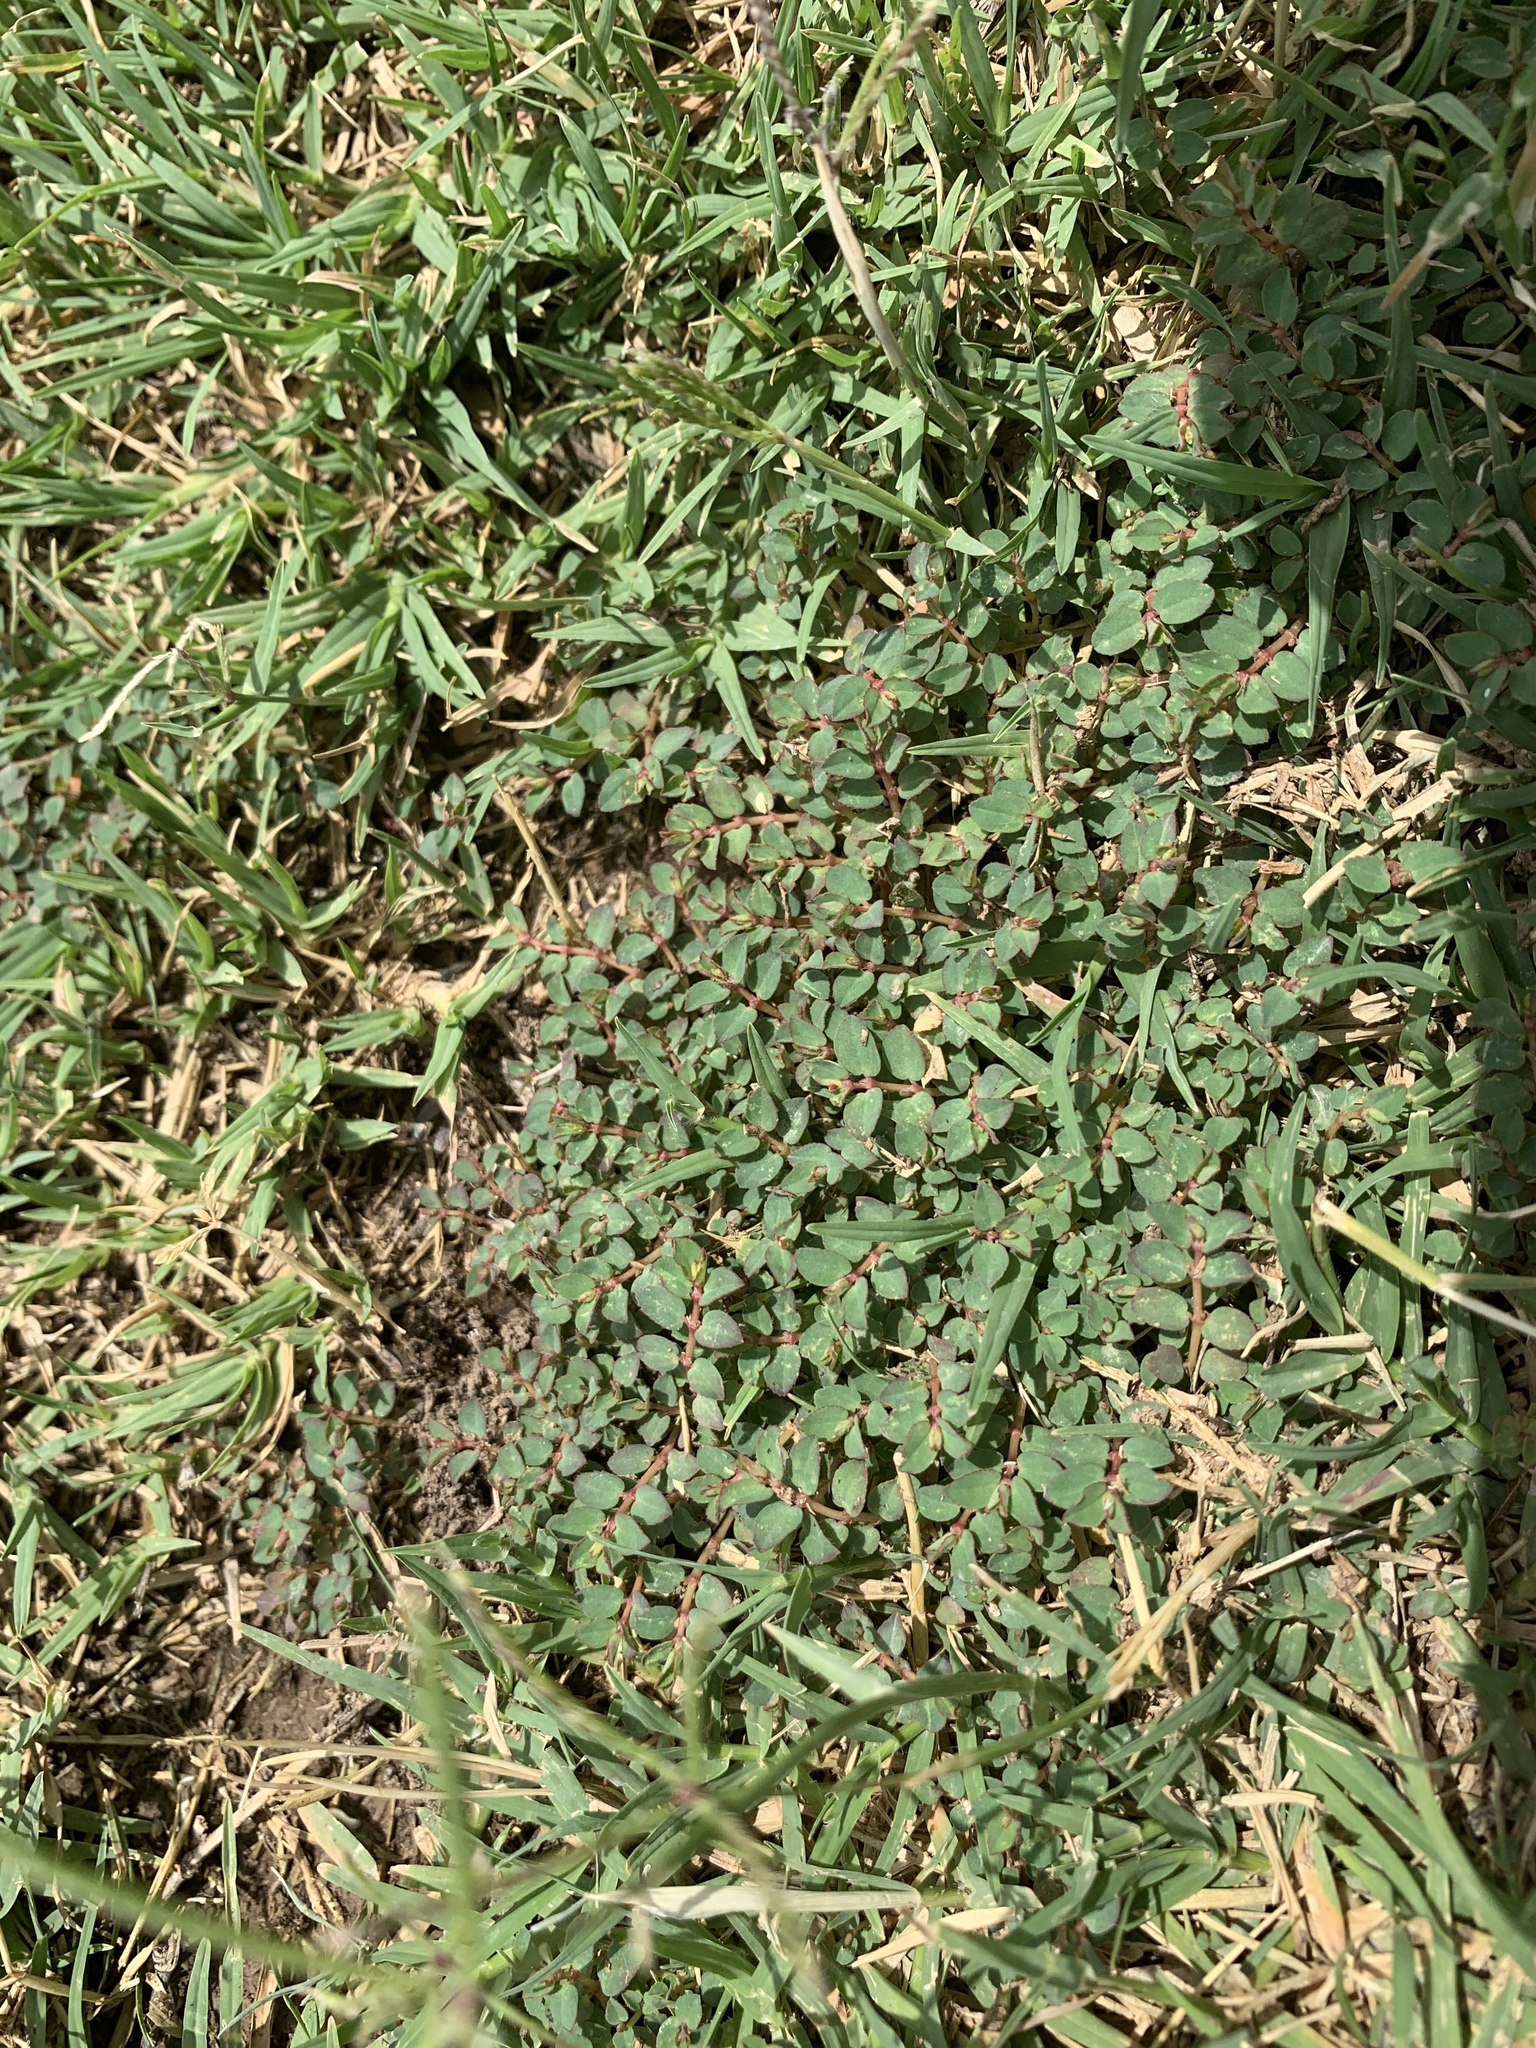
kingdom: Plantae
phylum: Tracheophyta
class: Magnoliopsida
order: Malpighiales
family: Euphorbiaceae
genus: Euphorbia
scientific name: Euphorbia vermiculata
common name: Hairy spurge
